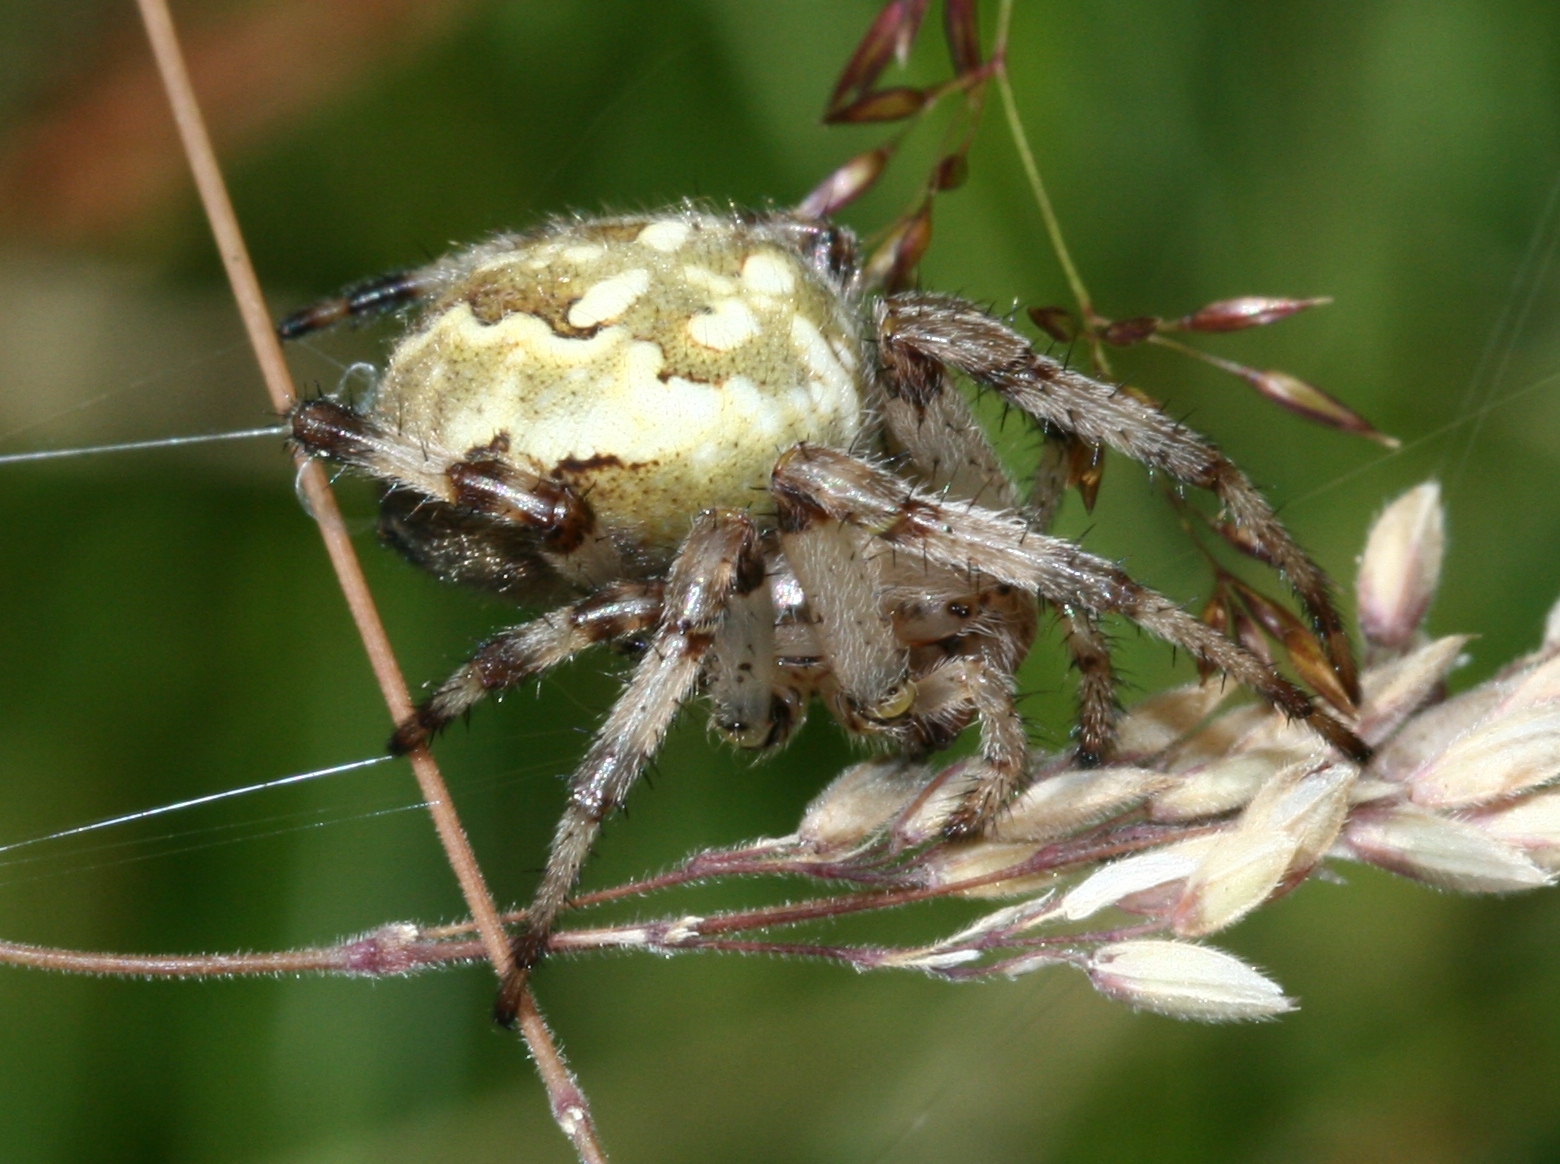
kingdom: Animalia
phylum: Arthropoda
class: Arachnida
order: Araneae
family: Araneidae
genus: Araneus
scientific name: Araneus quadratus
